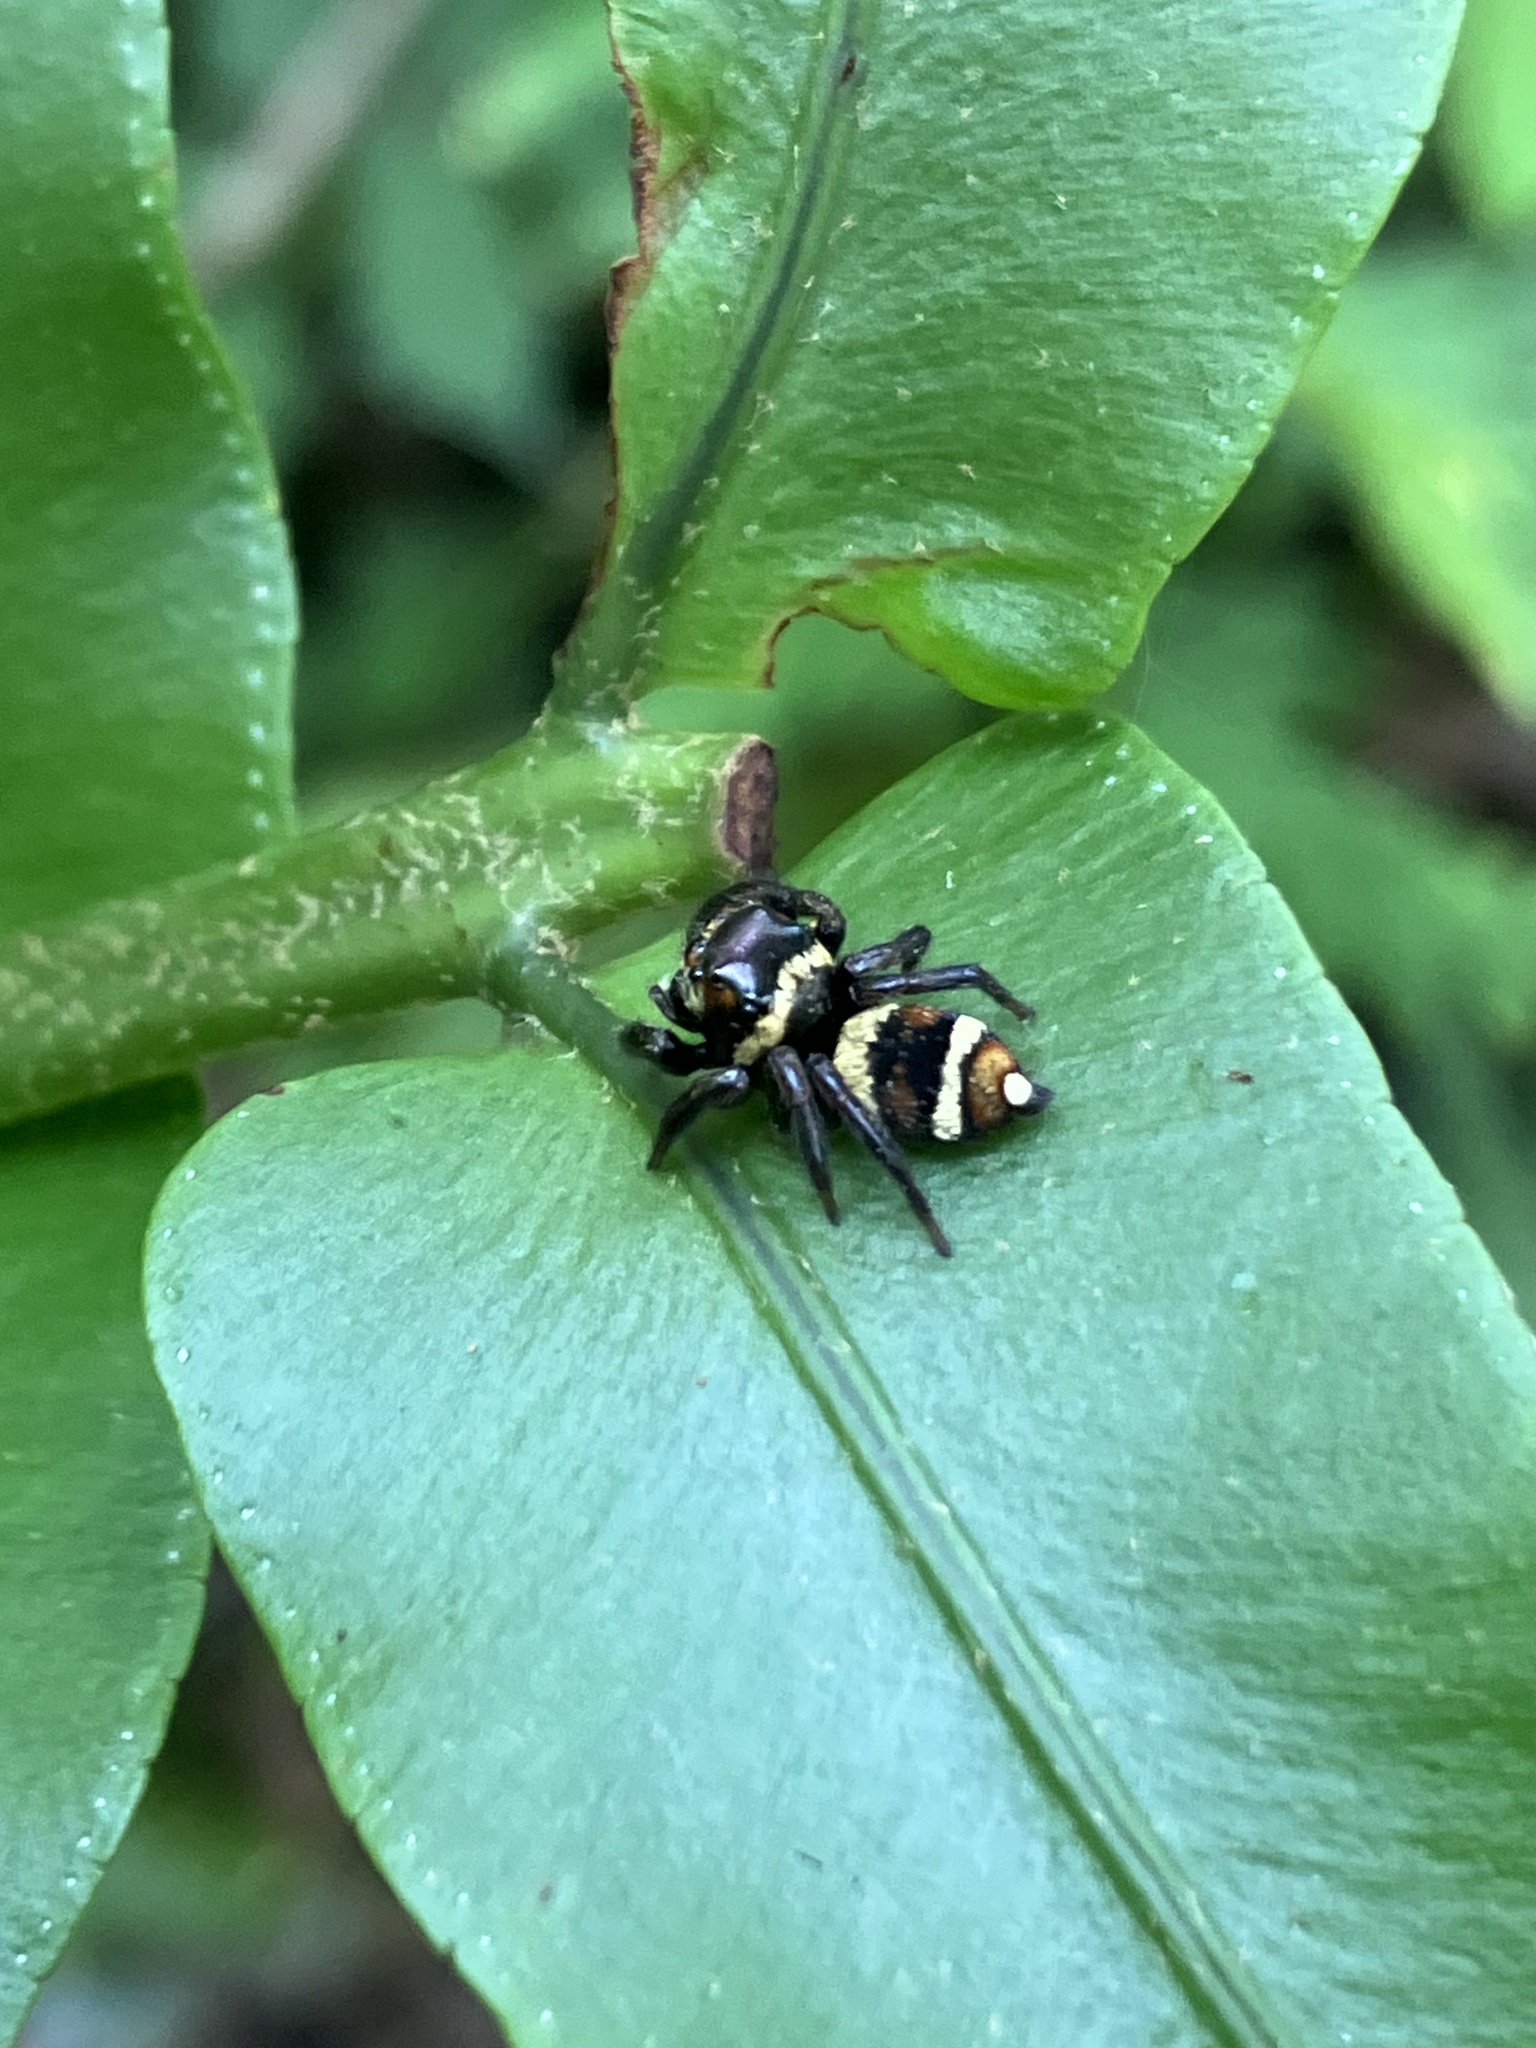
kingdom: Animalia
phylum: Arthropoda
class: Arachnida
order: Araneae
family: Salticidae
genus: Ptocasius
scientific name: Ptocasius strupifer
